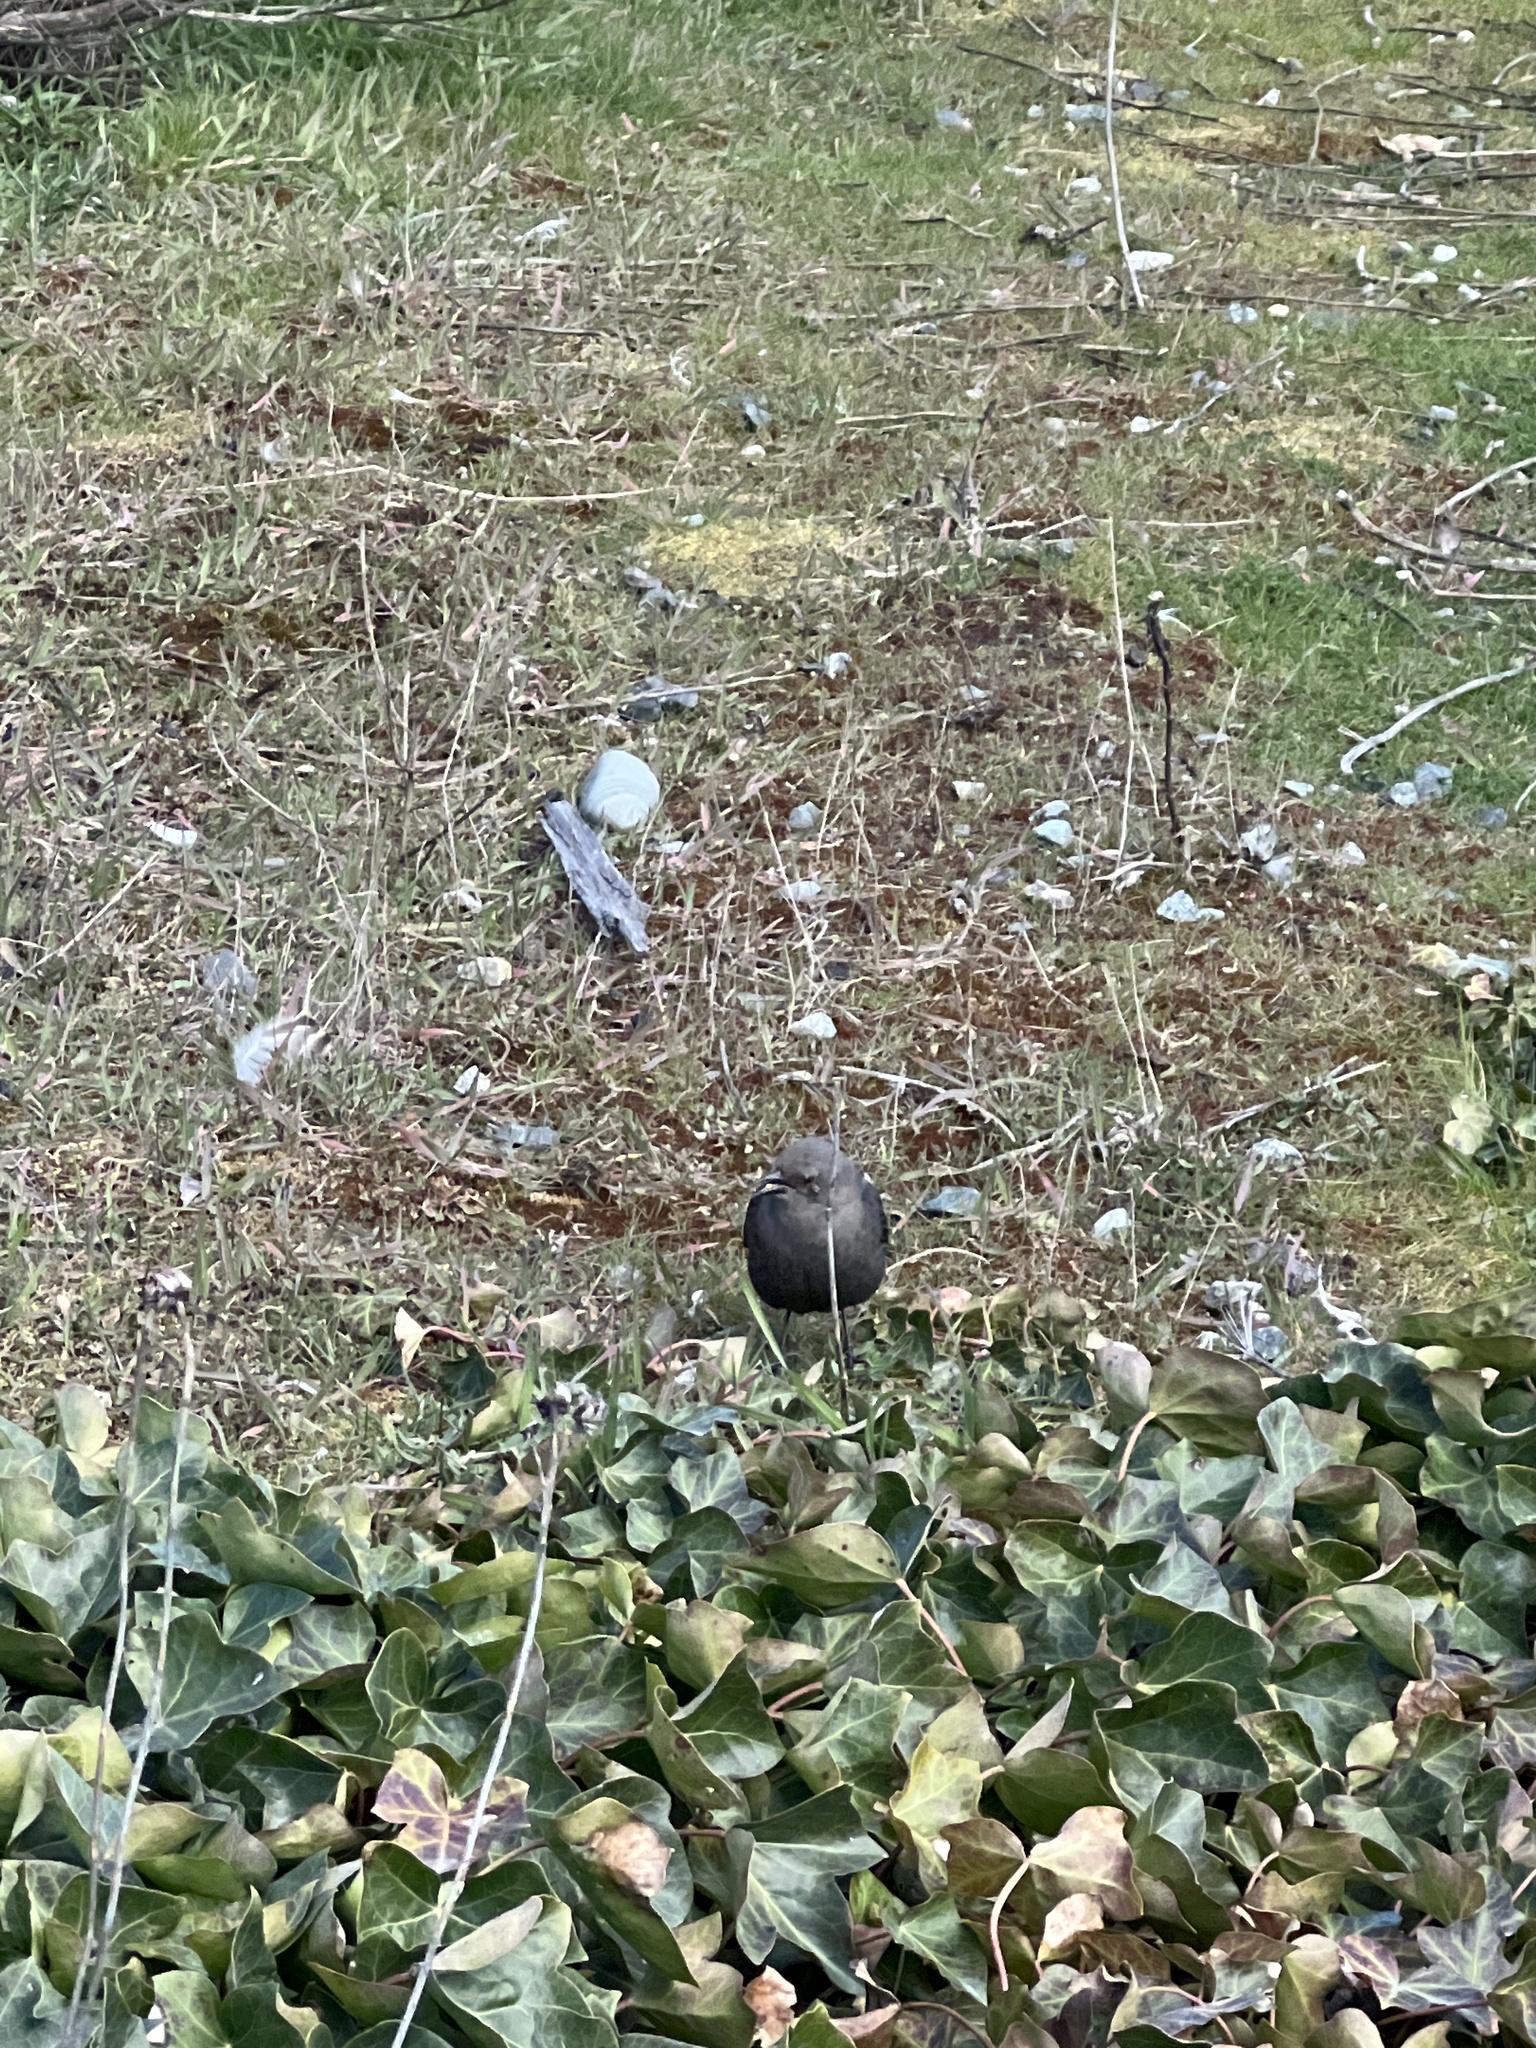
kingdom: Animalia
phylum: Chordata
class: Aves
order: Passeriformes
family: Icteridae
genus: Euphagus
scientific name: Euphagus cyanocephalus
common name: Brewer's blackbird
